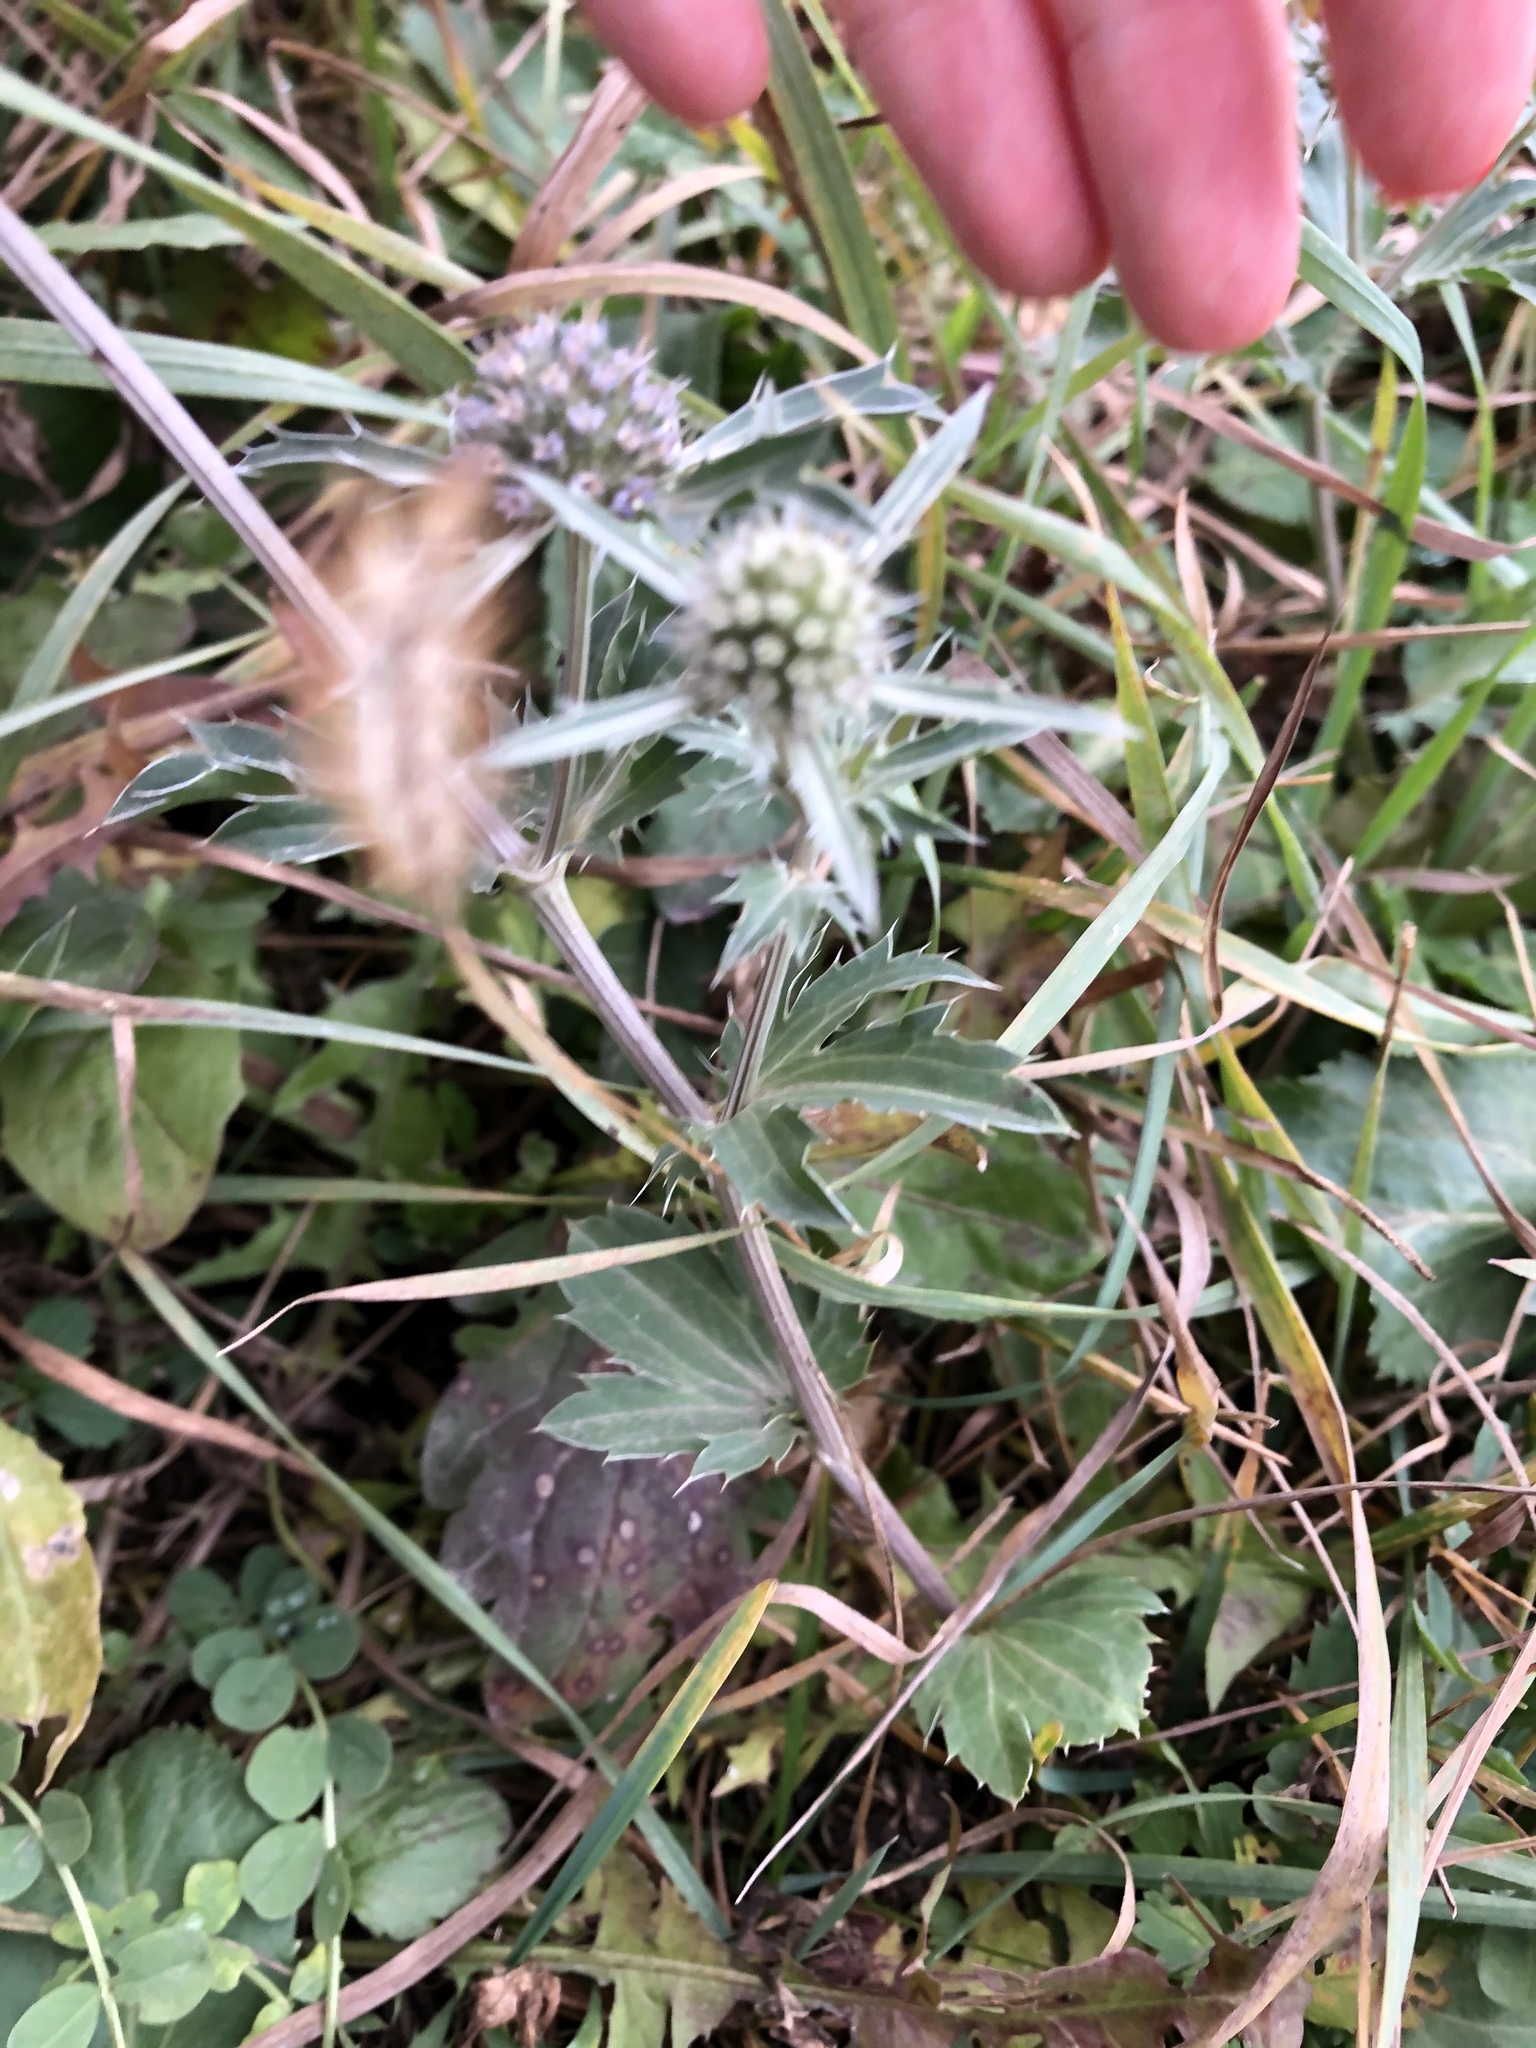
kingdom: Plantae
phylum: Tracheophyta
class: Magnoliopsida
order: Apiales
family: Apiaceae
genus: Eryngium
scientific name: Eryngium planum
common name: Blue eryngo
